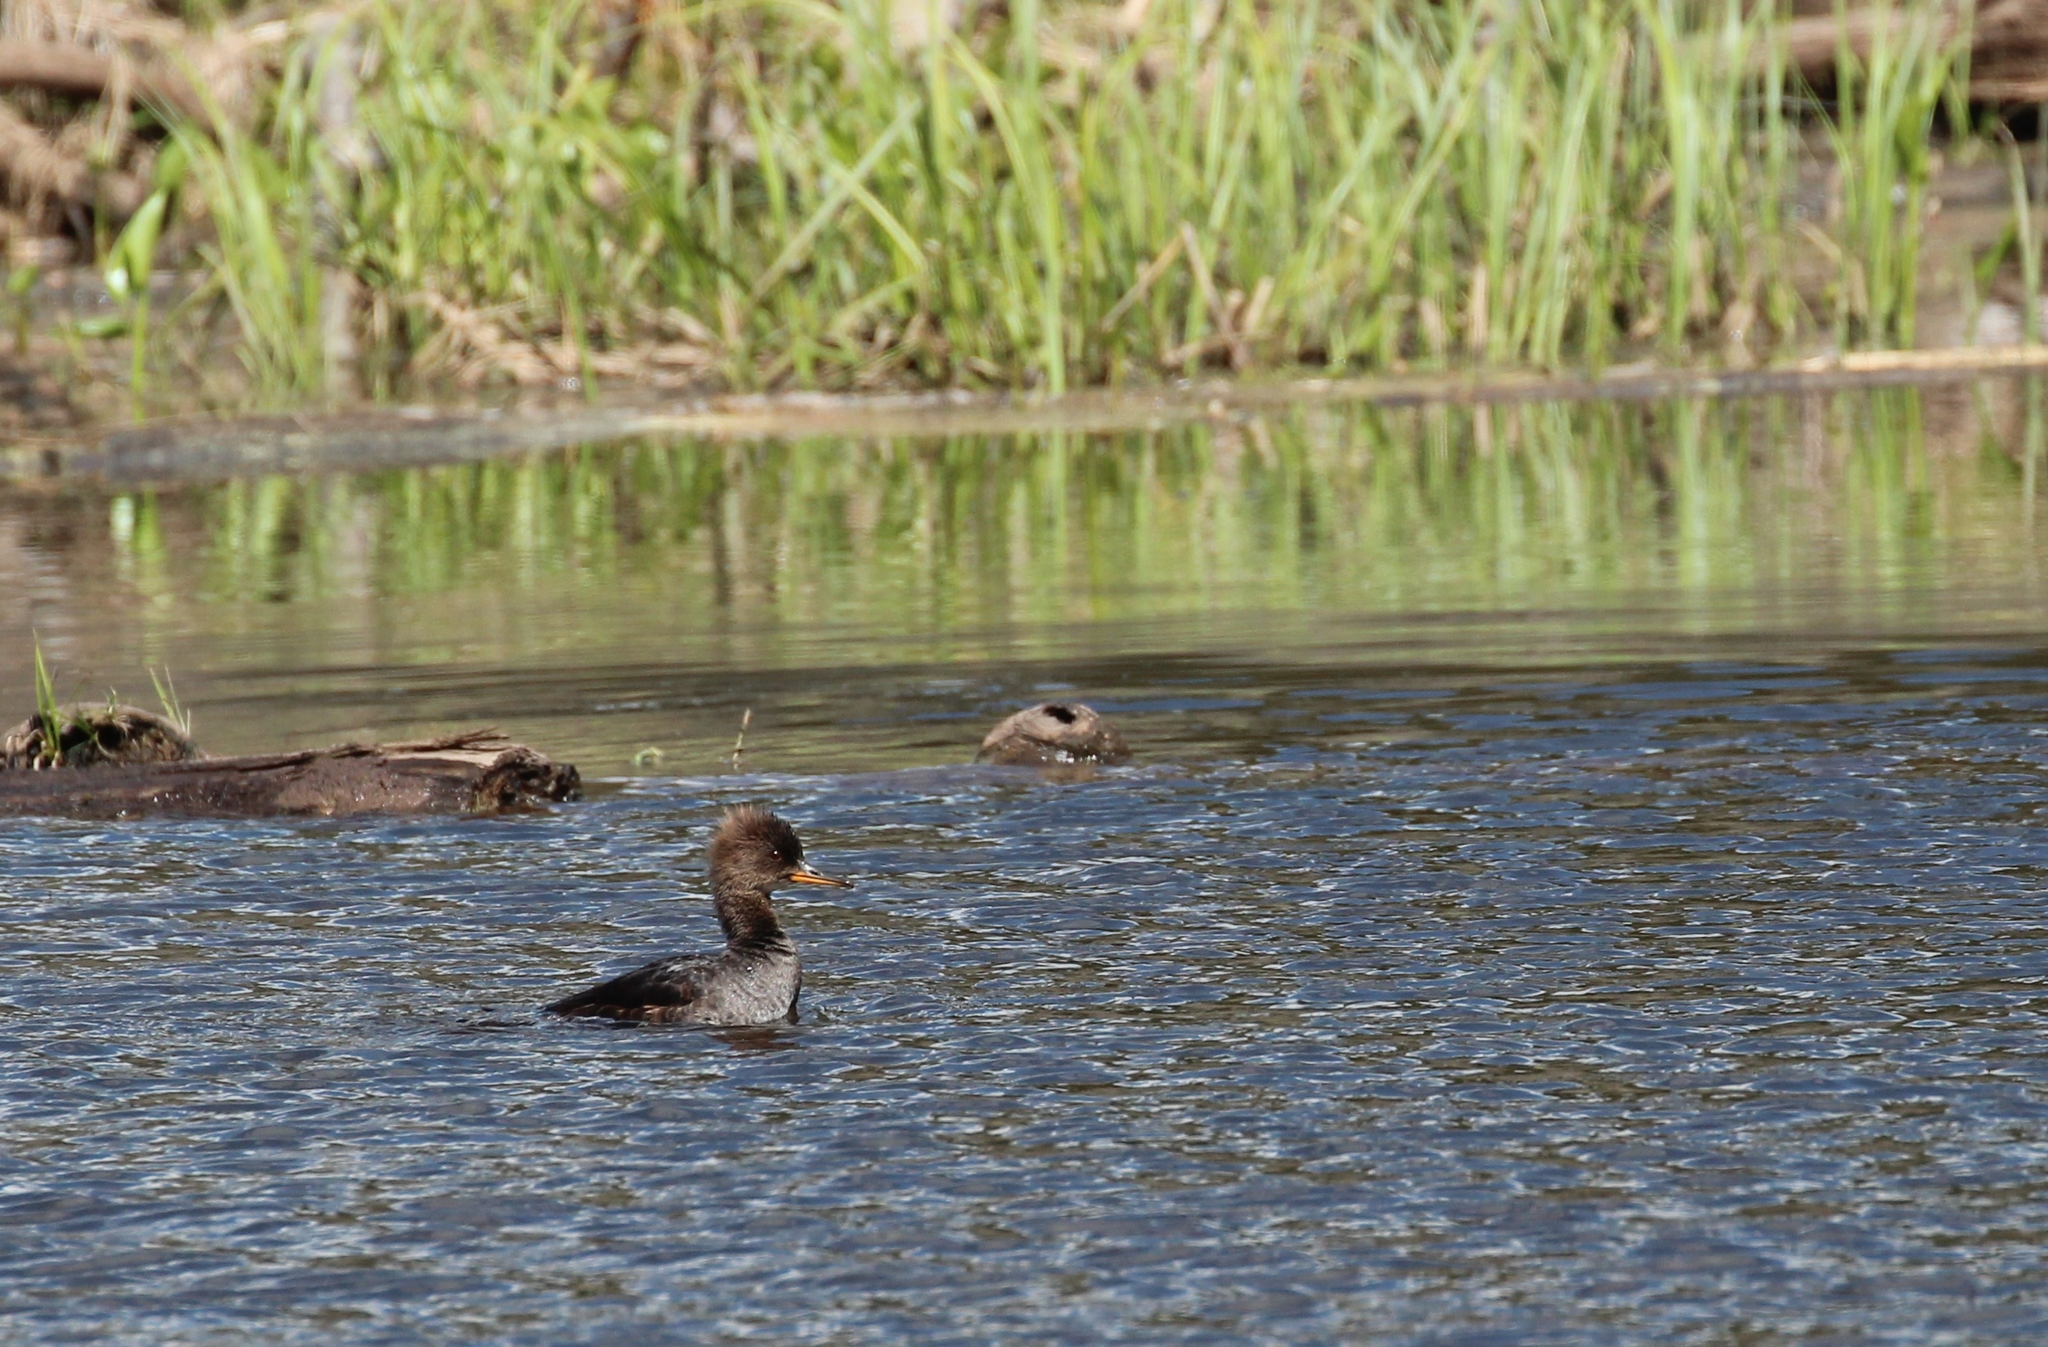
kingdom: Animalia
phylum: Chordata
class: Aves
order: Anseriformes
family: Anatidae
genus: Lophodytes
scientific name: Lophodytes cucullatus
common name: Hooded merganser
